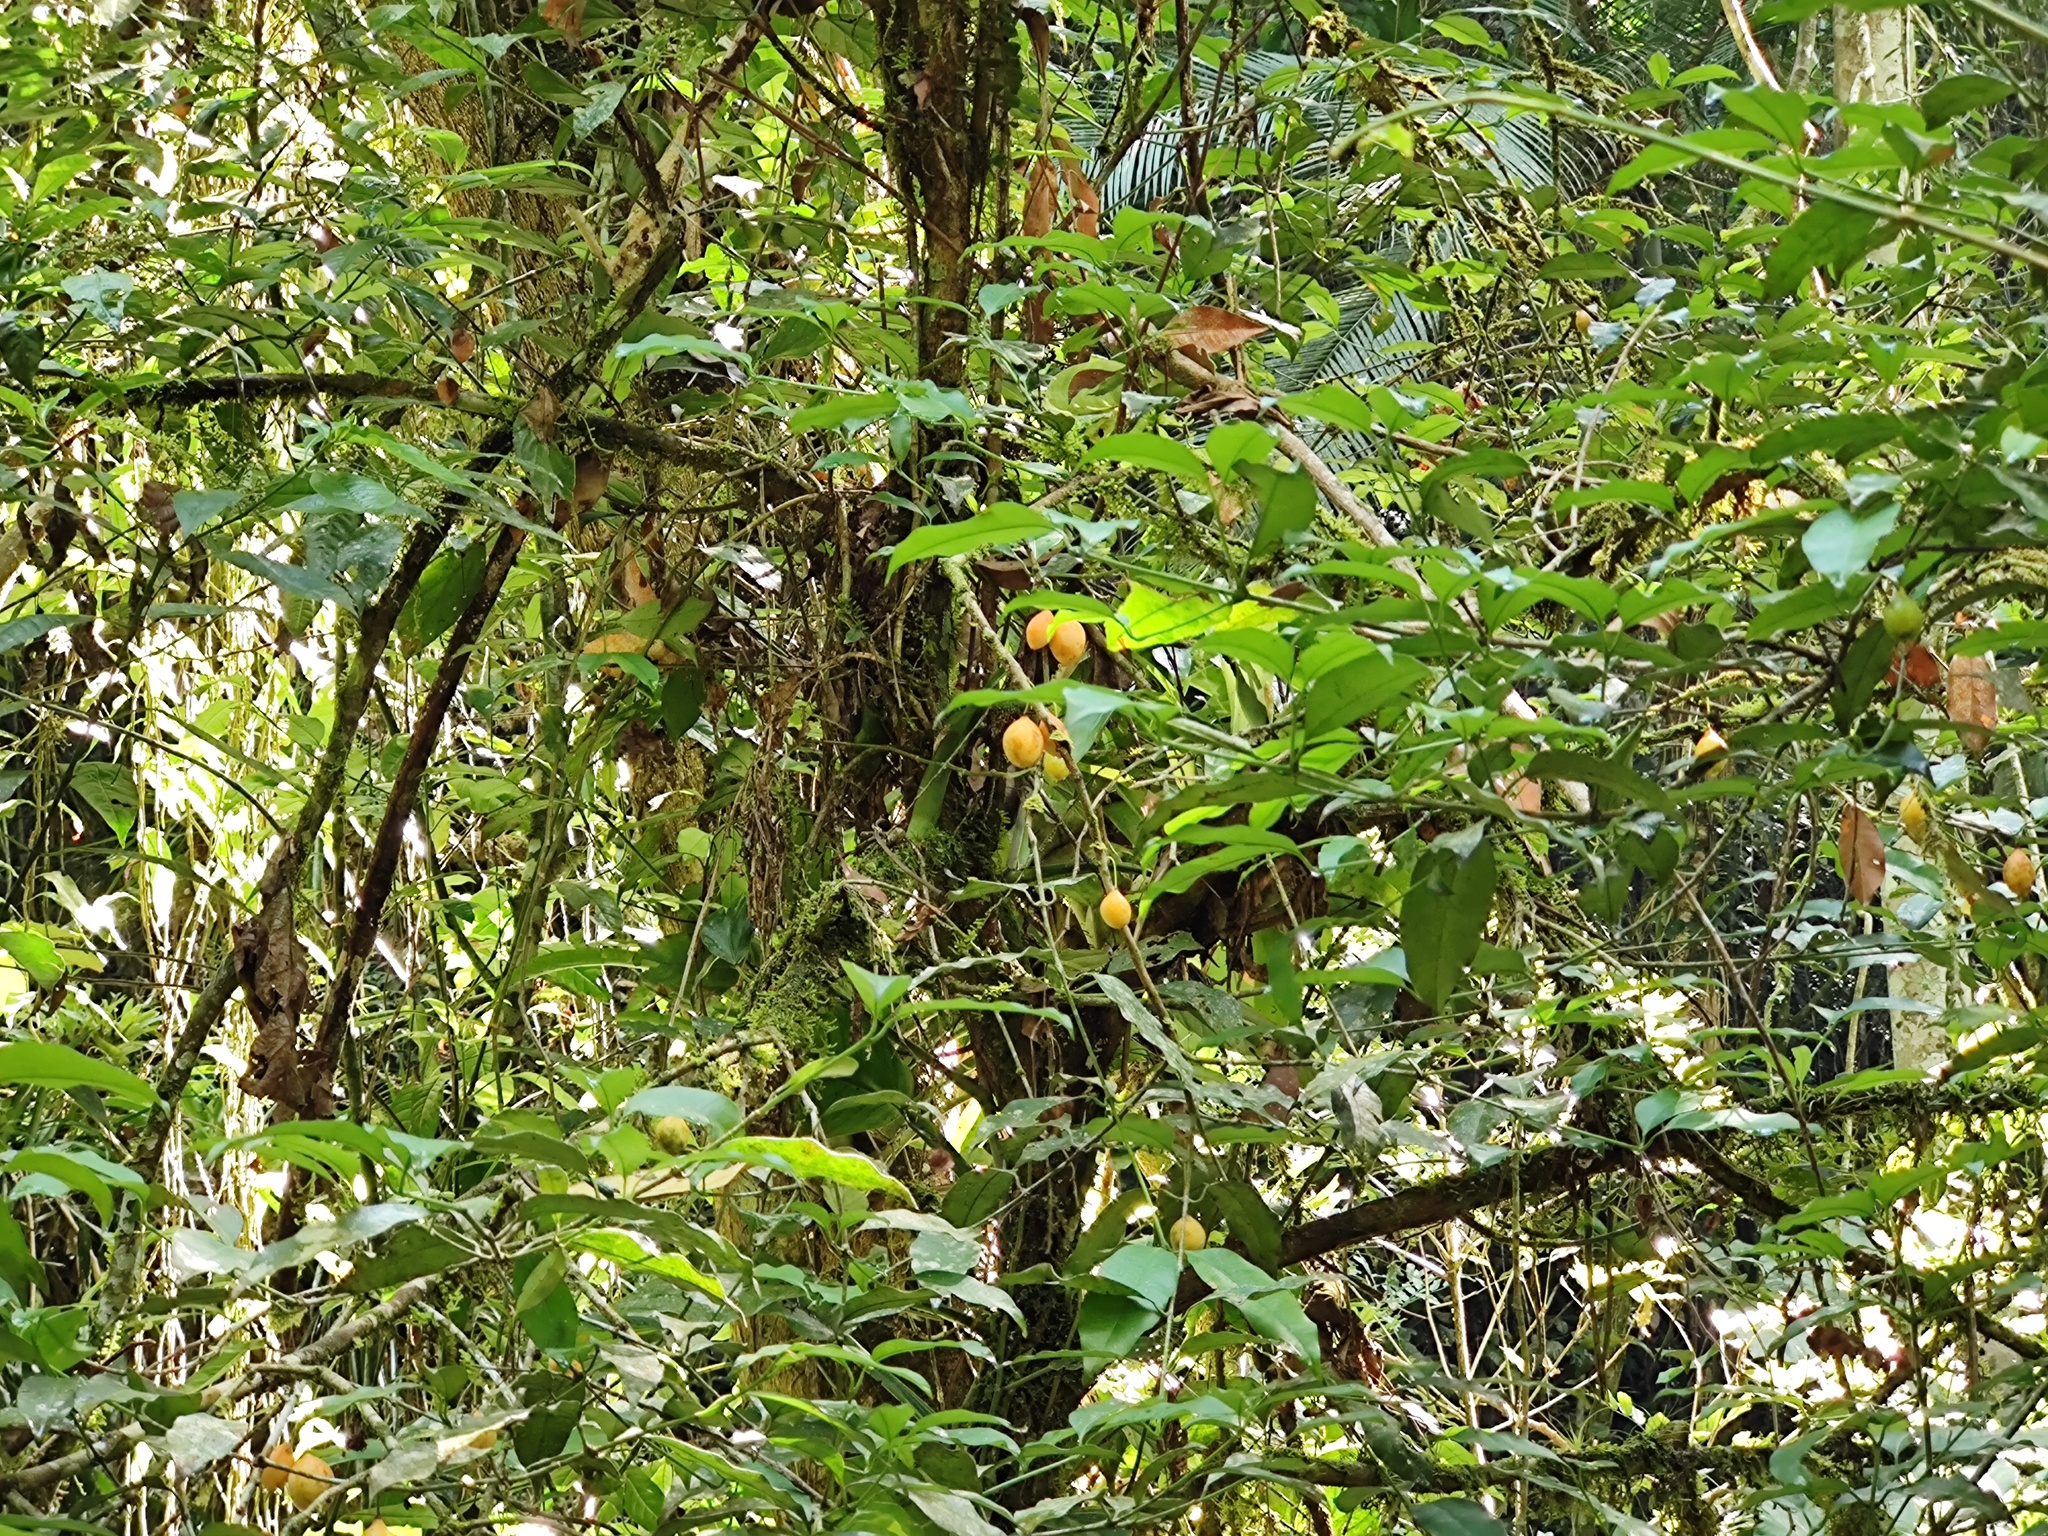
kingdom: Plantae
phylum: Tracheophyta
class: Magnoliopsida
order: Malpighiales
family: Clusiaceae
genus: Garcinia
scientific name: Garcinia gardneriana
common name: Achacha
